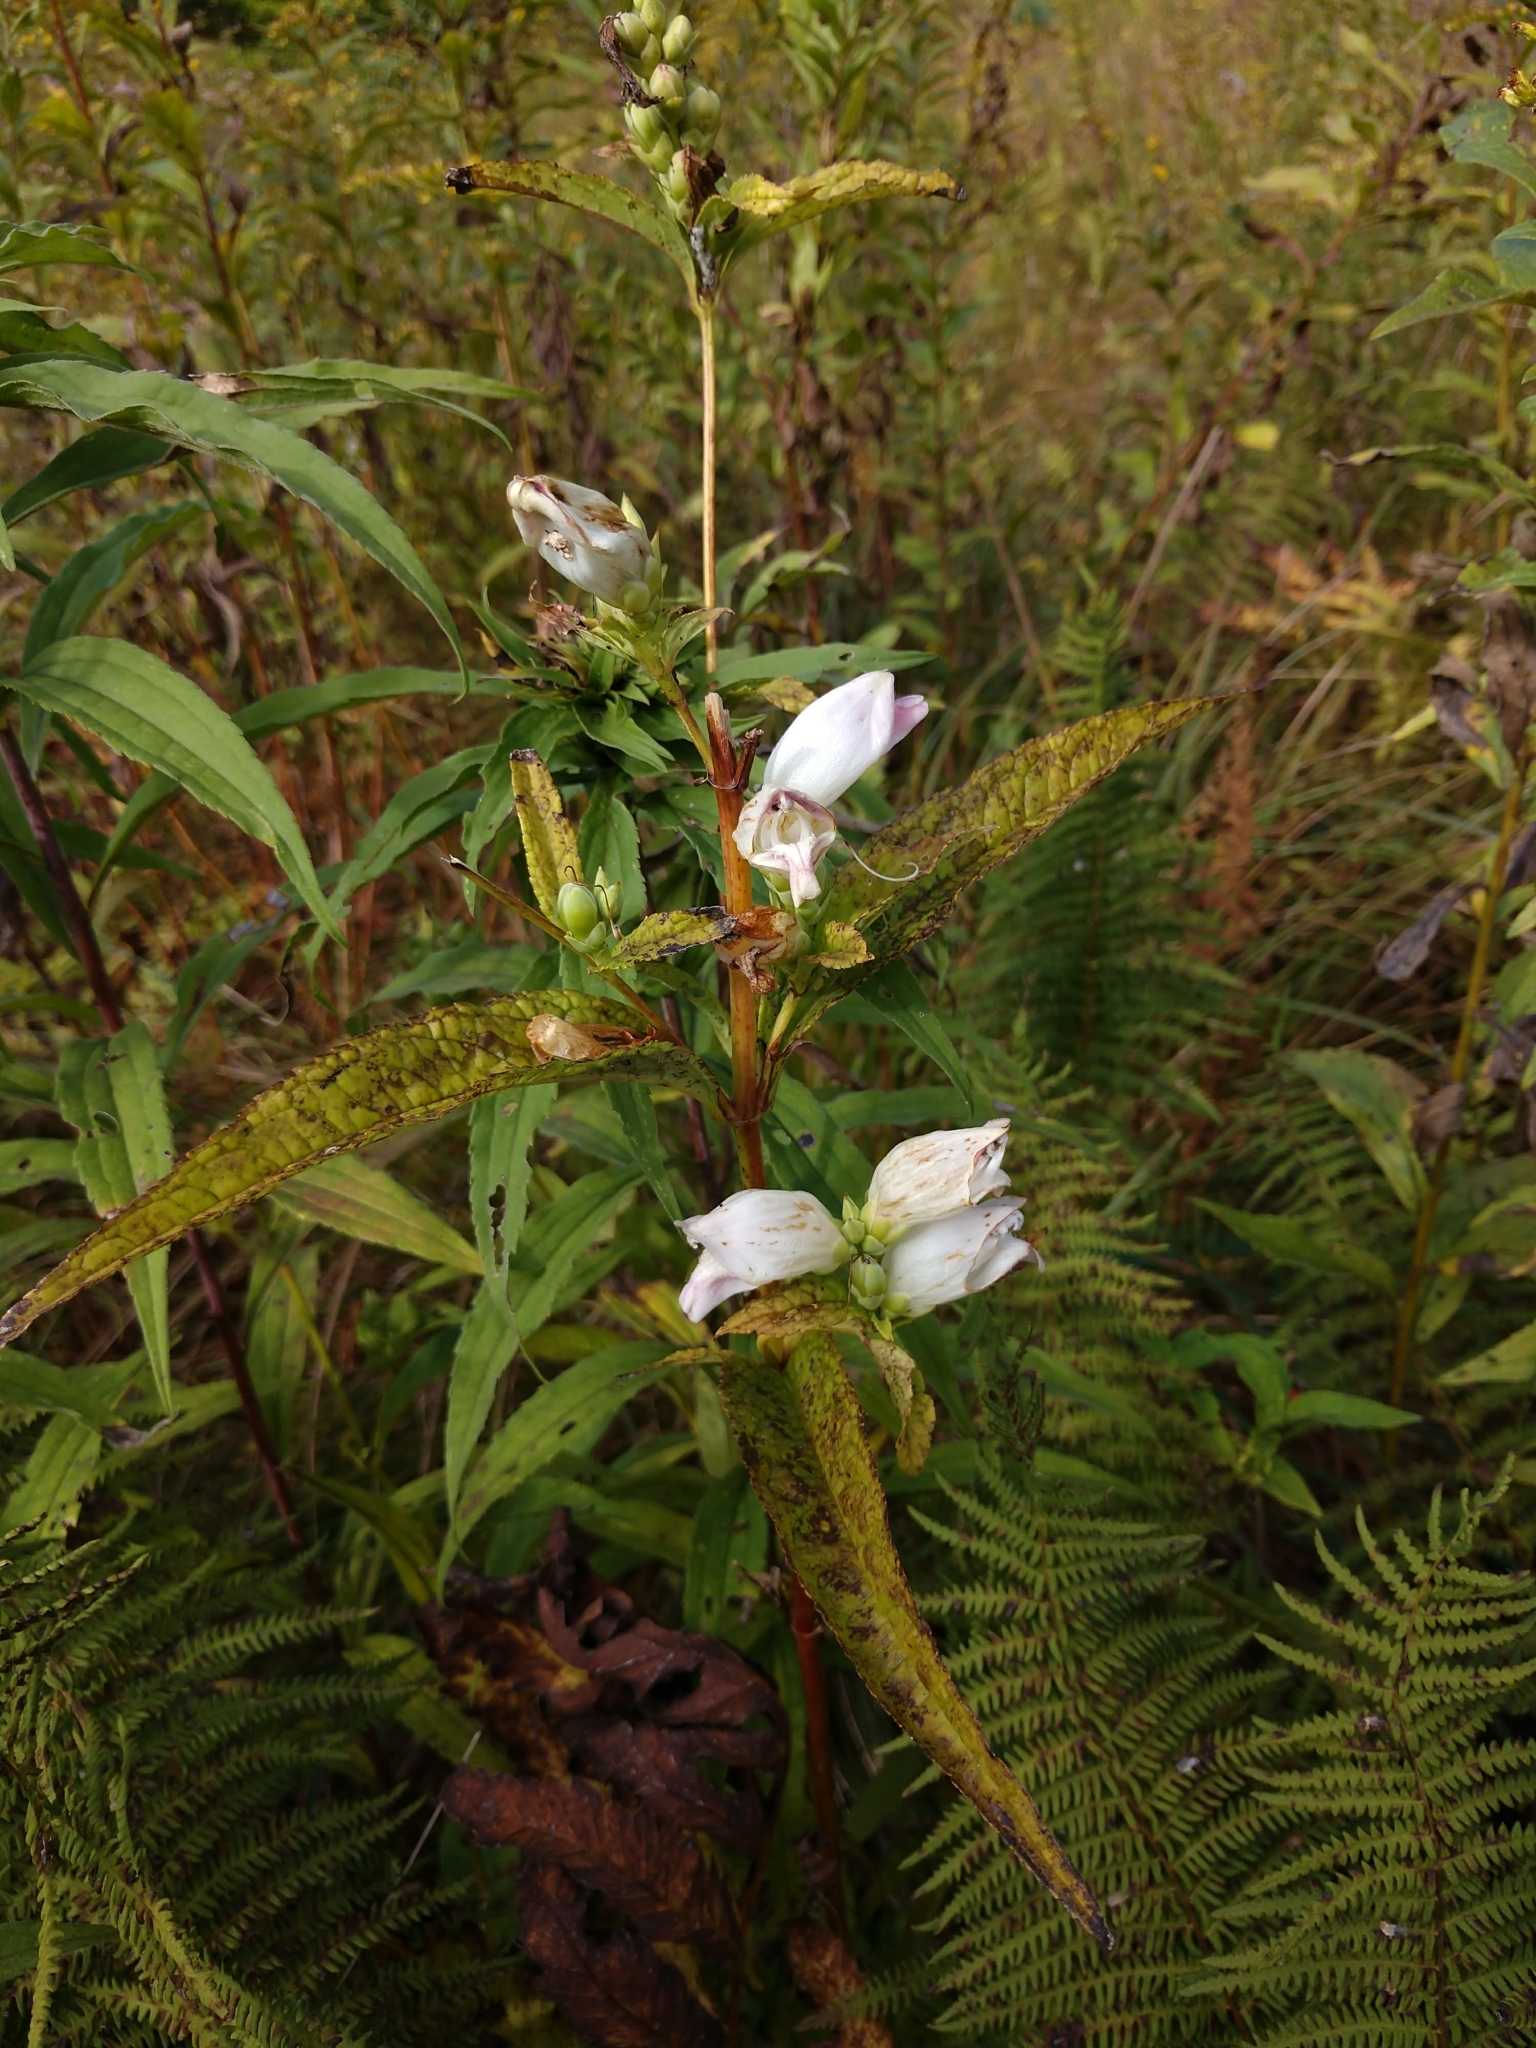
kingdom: Plantae
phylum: Tracheophyta
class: Magnoliopsida
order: Lamiales
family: Plantaginaceae
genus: Chelone
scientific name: Chelone glabra
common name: Snakehead
